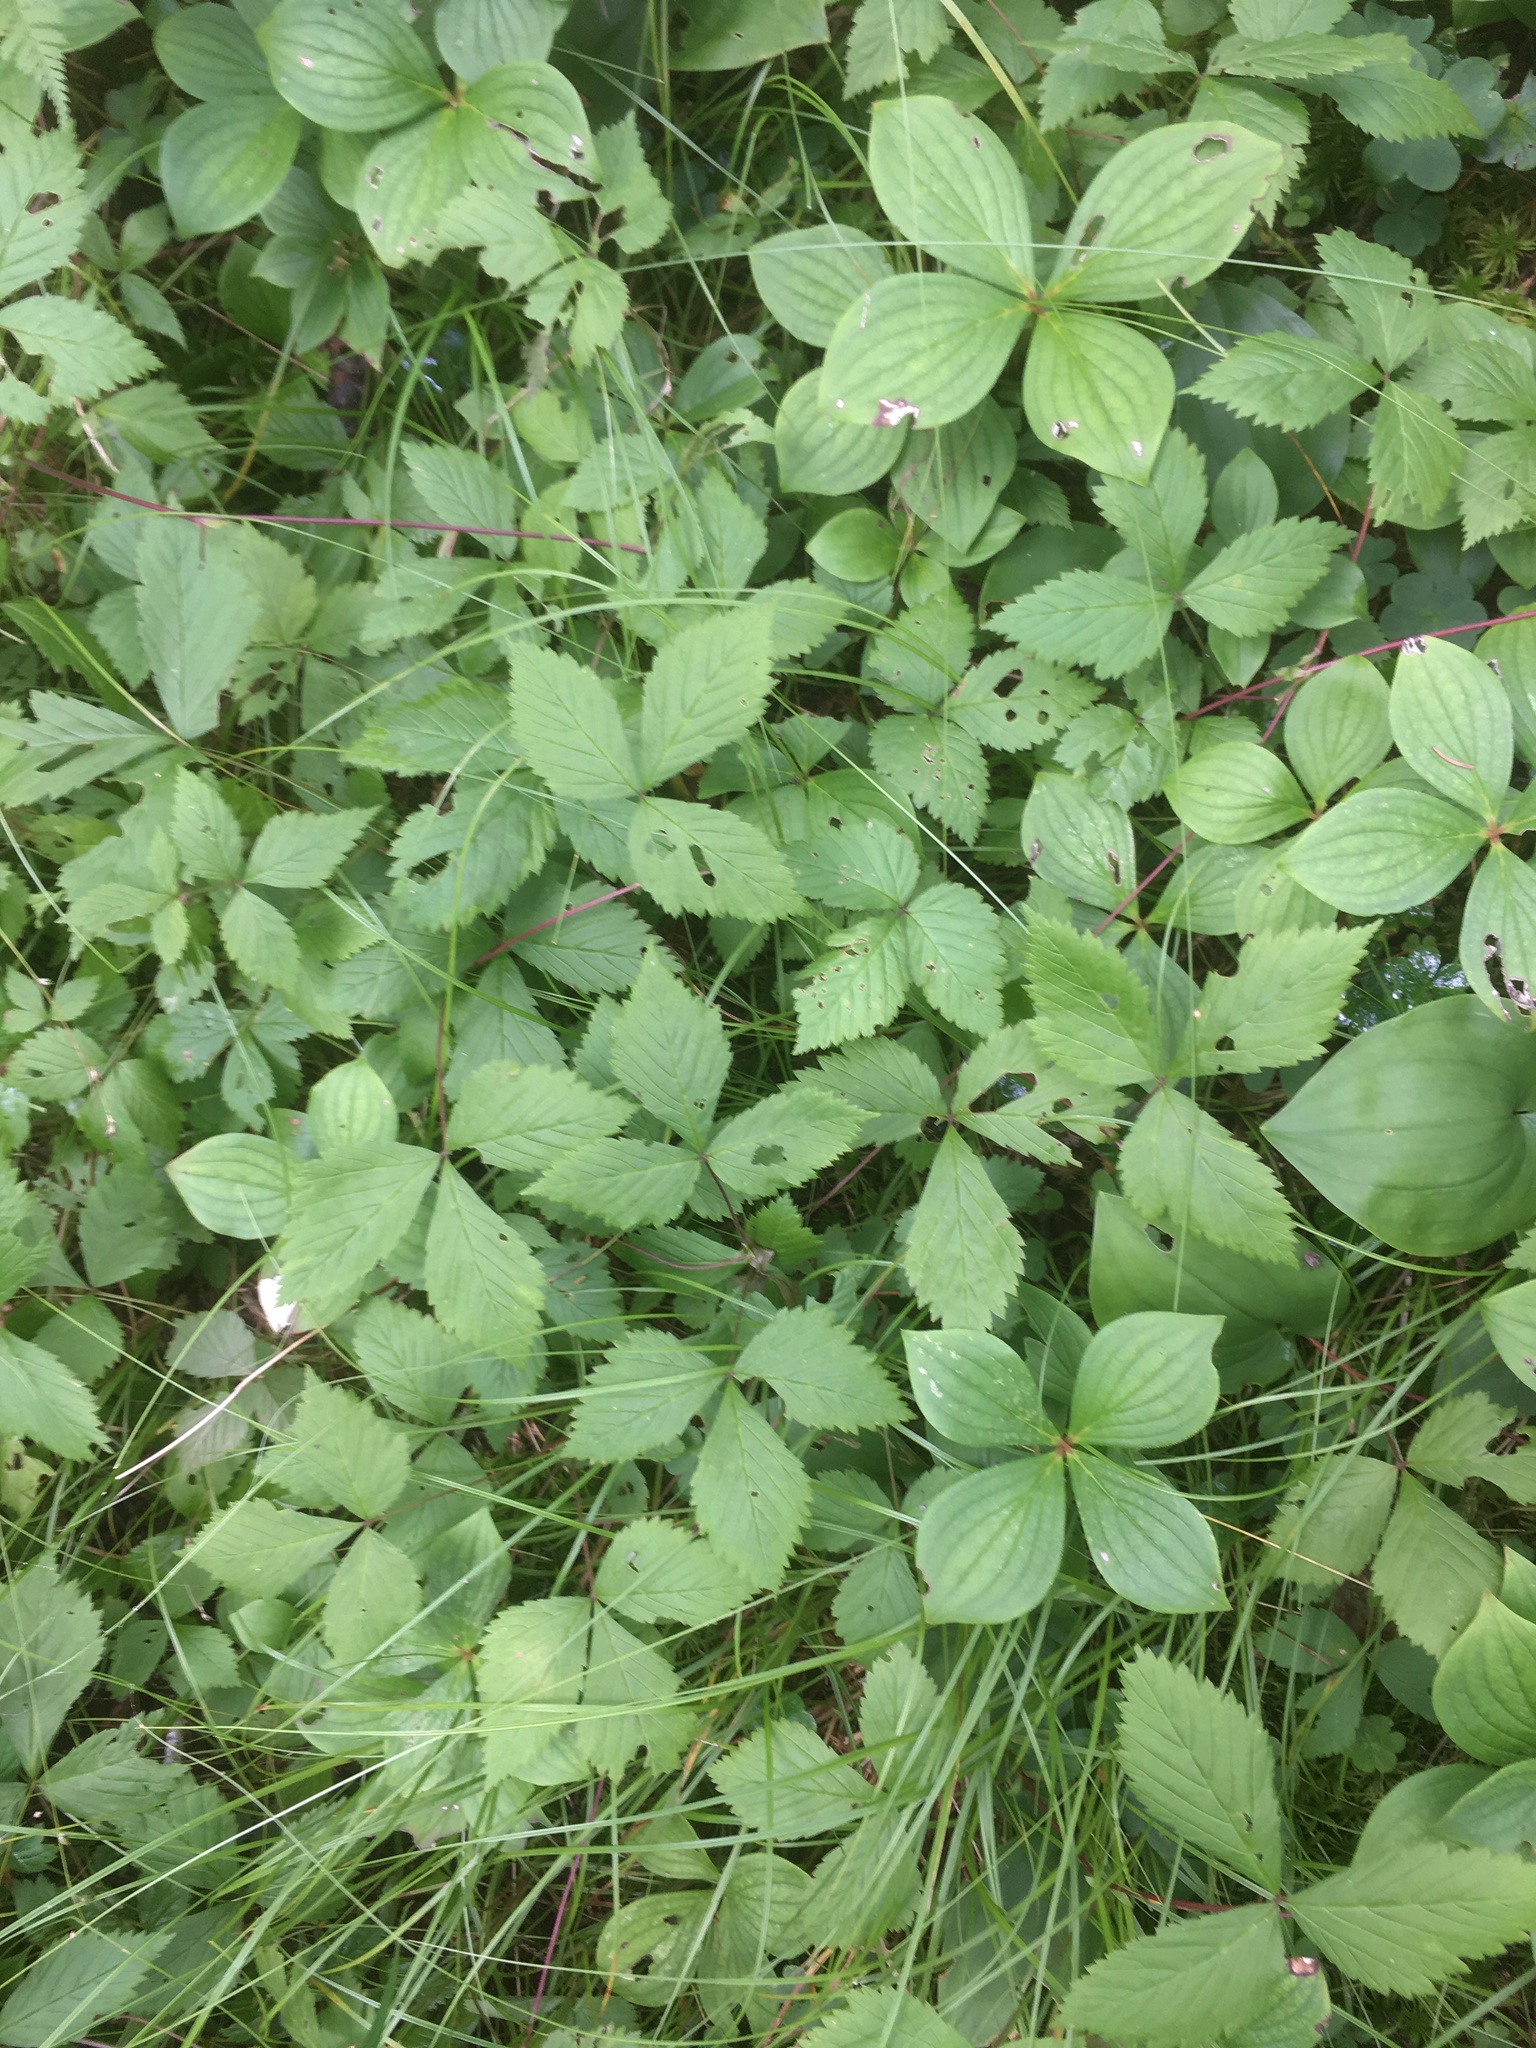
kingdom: Plantae
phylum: Tracheophyta
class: Magnoliopsida
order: Rosales
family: Rosaceae
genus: Rubus
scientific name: Rubus pubescens
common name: Dwarf raspberry
